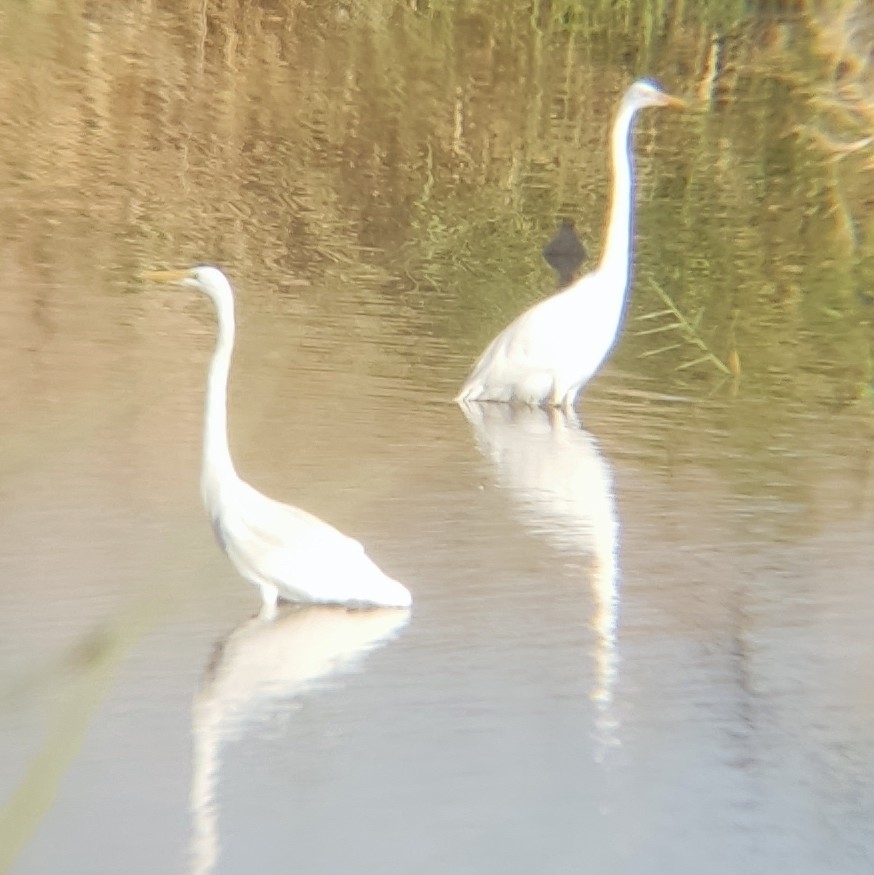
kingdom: Animalia
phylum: Chordata
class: Aves
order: Pelecaniformes
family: Ardeidae
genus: Ardea
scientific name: Ardea alba
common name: Great egret
